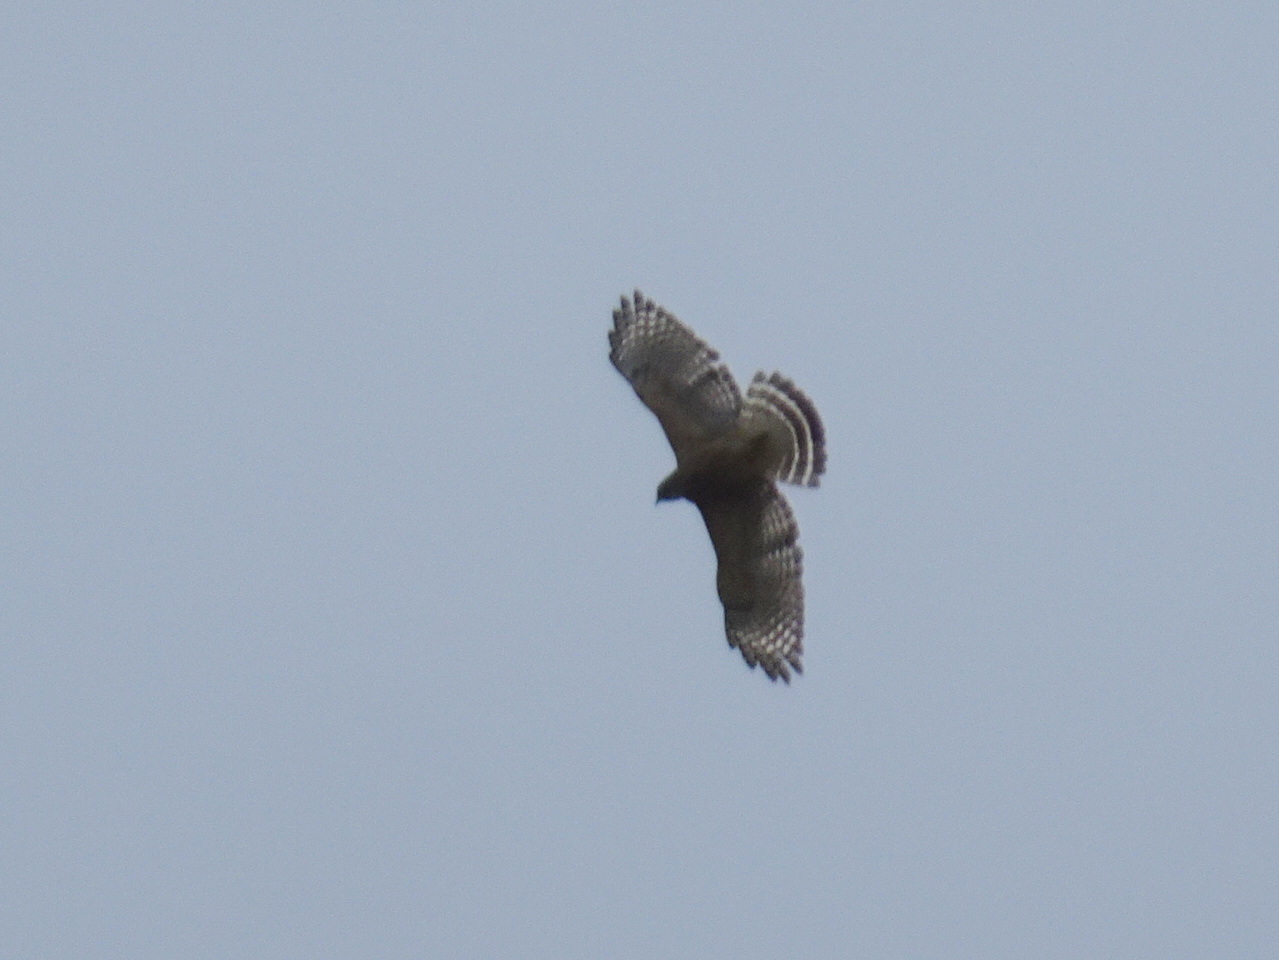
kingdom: Animalia
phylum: Chordata
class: Aves
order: Accipitriformes
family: Accipitridae
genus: Buteo
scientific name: Buteo lineatus
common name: Red-shouldered hawk
